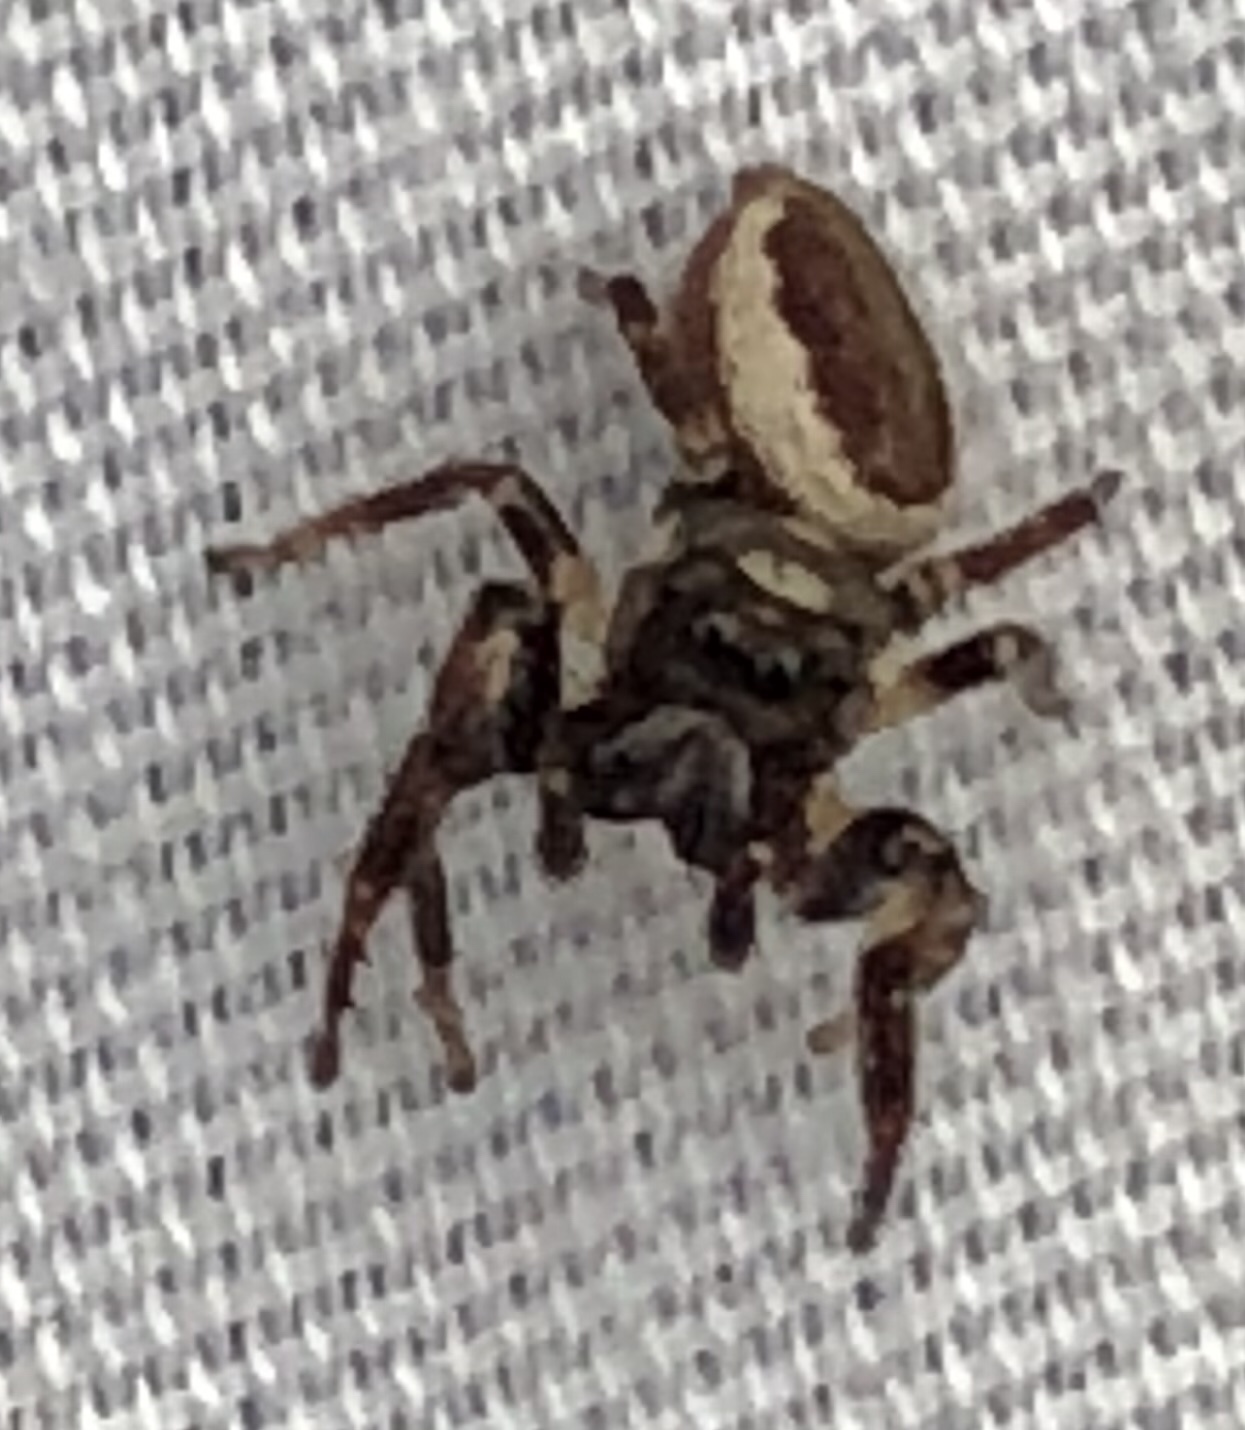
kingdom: Animalia
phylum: Arthropoda
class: Arachnida
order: Araneae
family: Salticidae
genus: Eris
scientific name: Eris militaris
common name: Bronze jumper
